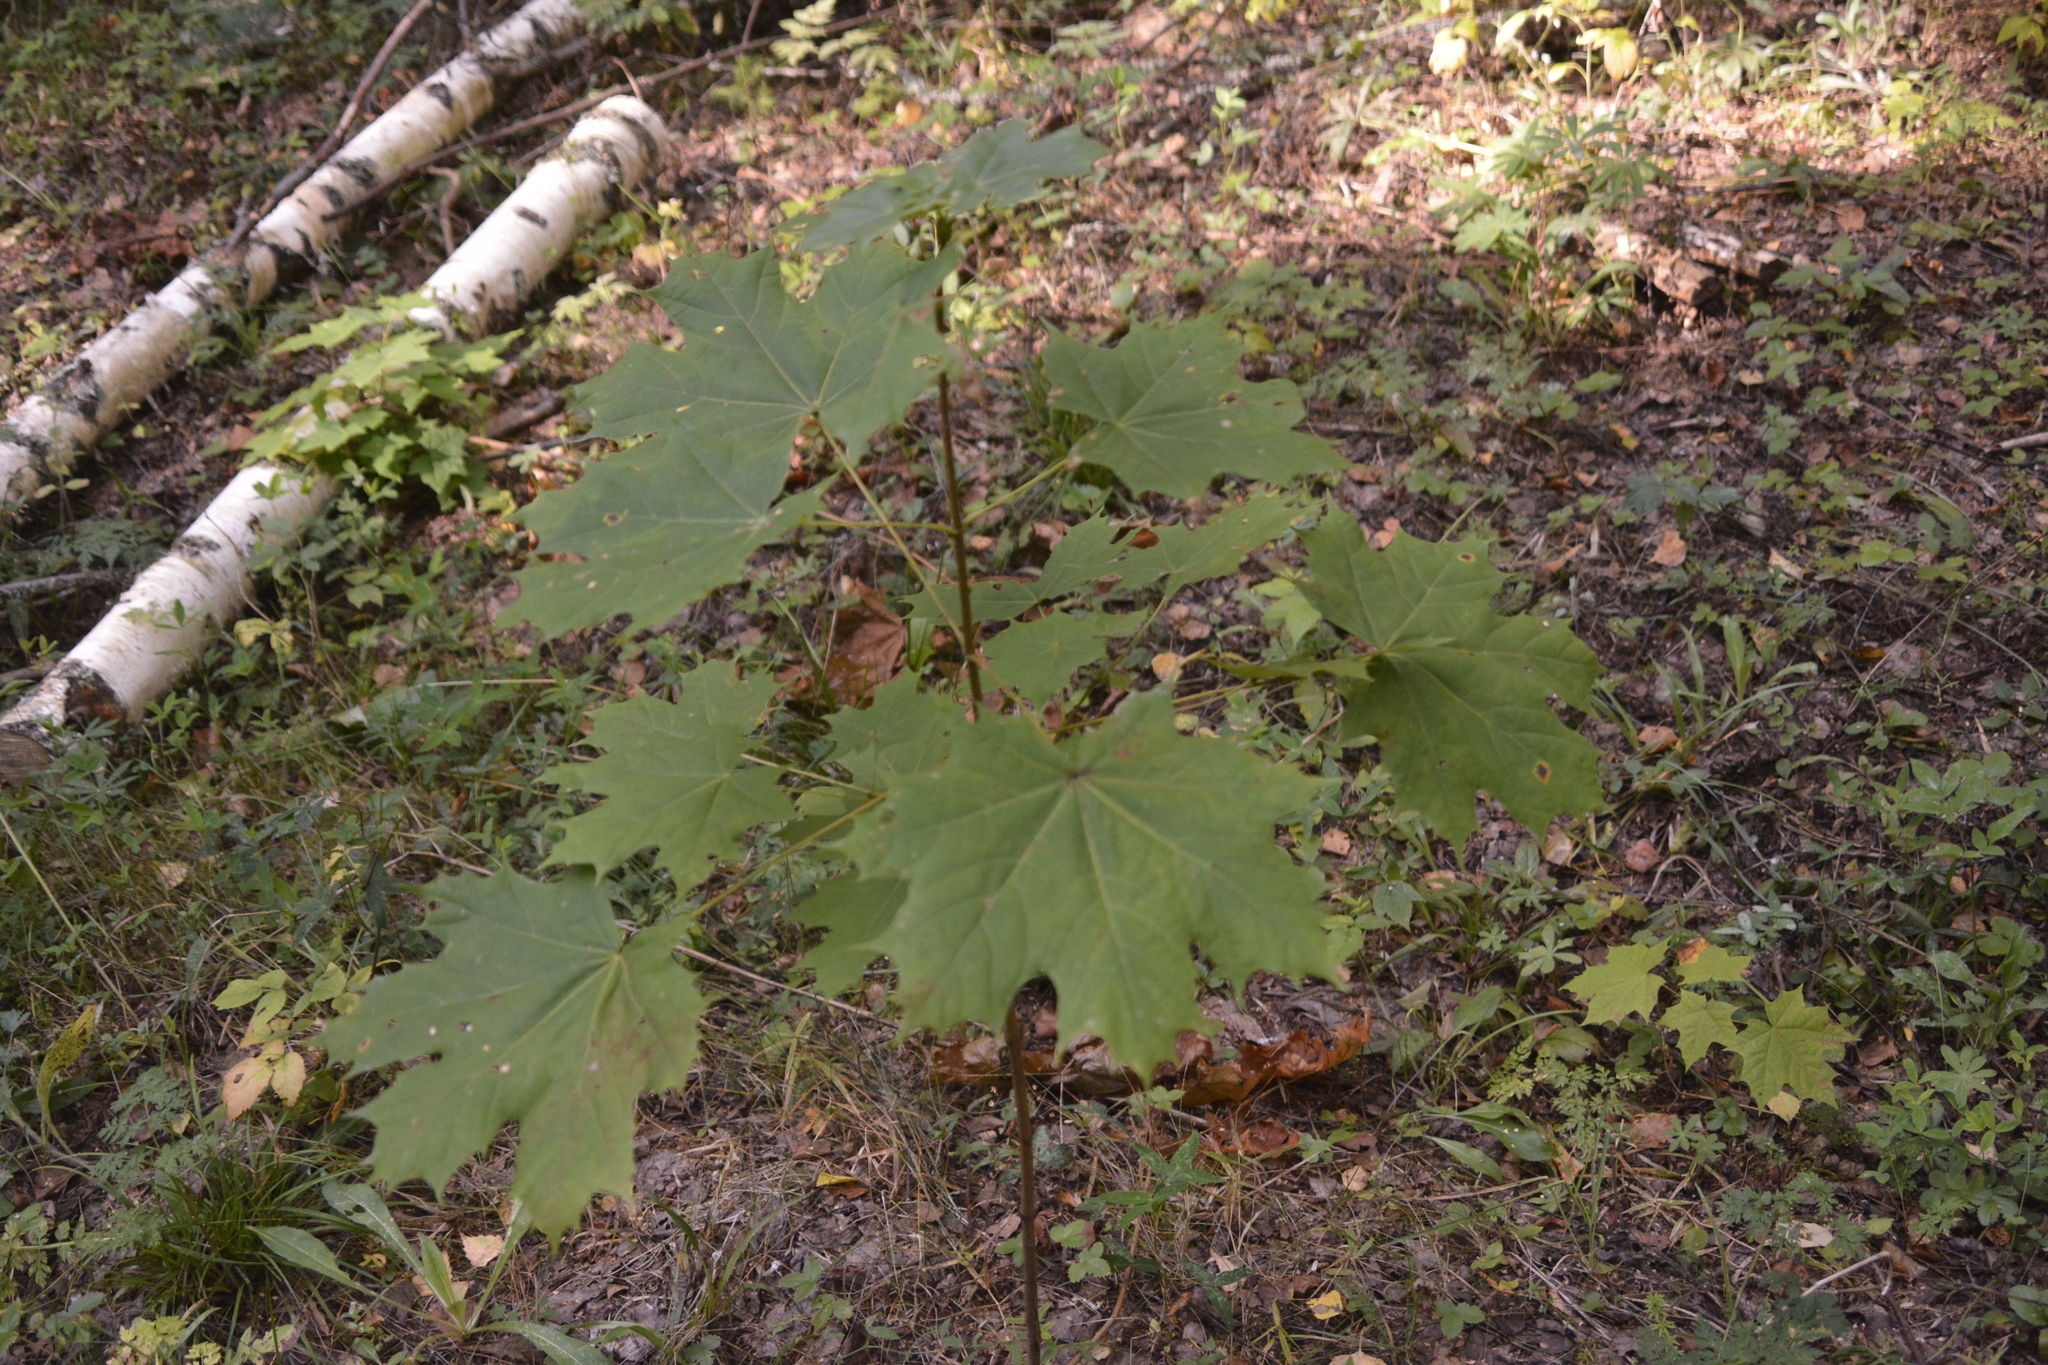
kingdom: Plantae
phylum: Tracheophyta
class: Magnoliopsida
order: Sapindales
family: Sapindaceae
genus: Acer
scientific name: Acer platanoides
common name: Norway maple
